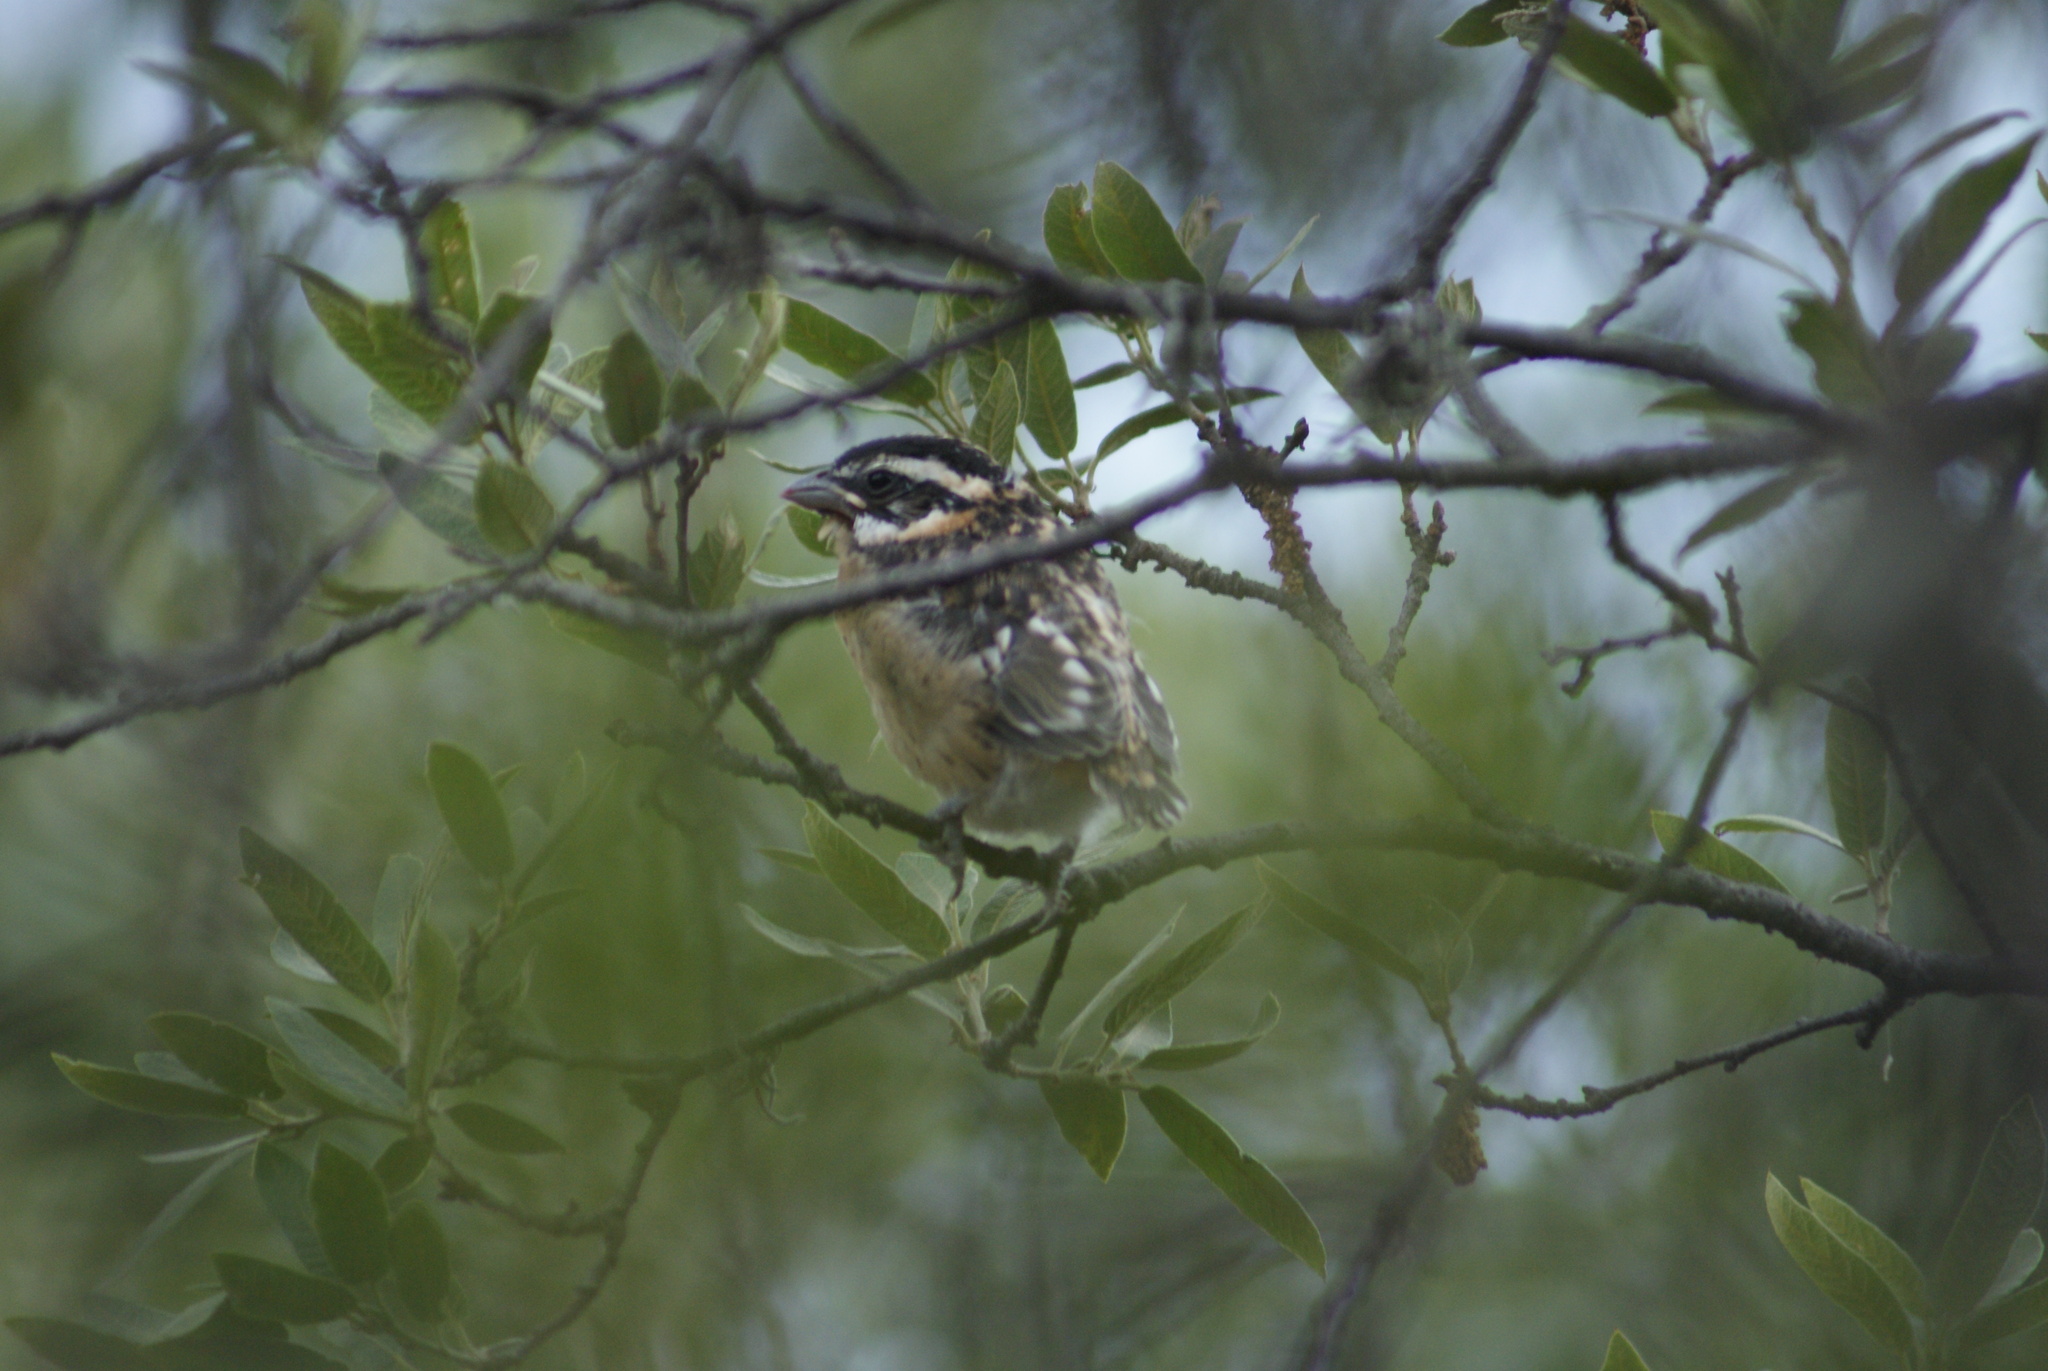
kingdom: Animalia
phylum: Chordata
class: Aves
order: Passeriformes
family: Cardinalidae
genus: Pheucticus
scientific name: Pheucticus melanocephalus
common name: Black-headed grosbeak
